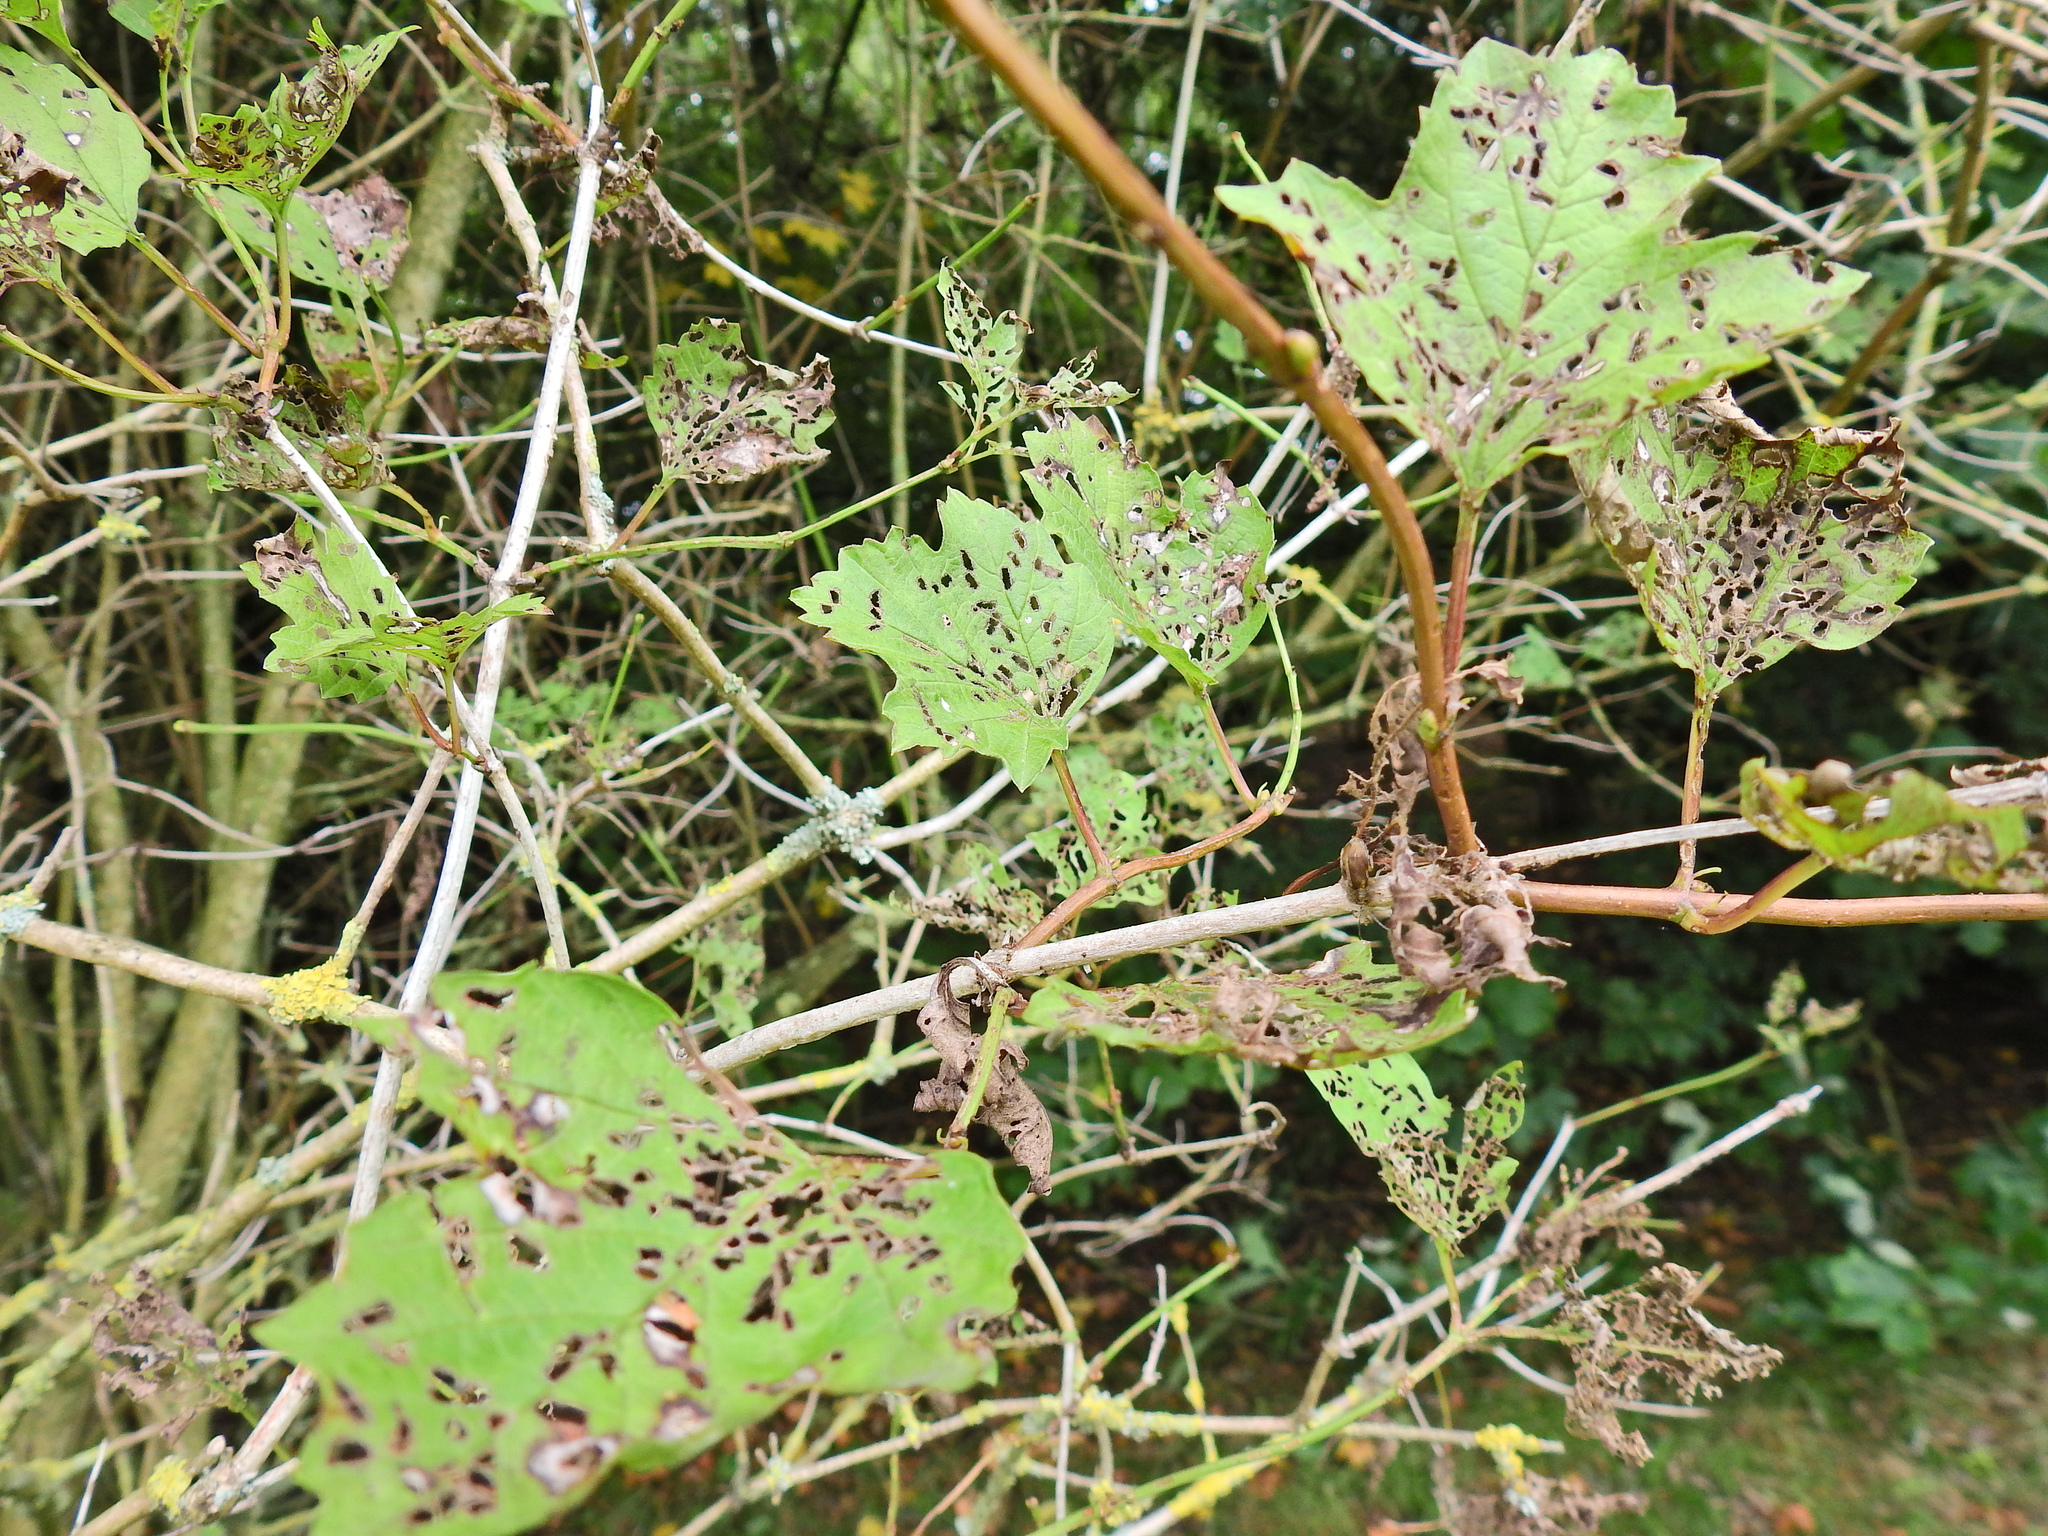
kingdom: Plantae
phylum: Tracheophyta
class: Magnoliopsida
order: Dipsacales
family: Viburnaceae
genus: Viburnum
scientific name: Viburnum opulus
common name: Guelder-rose
